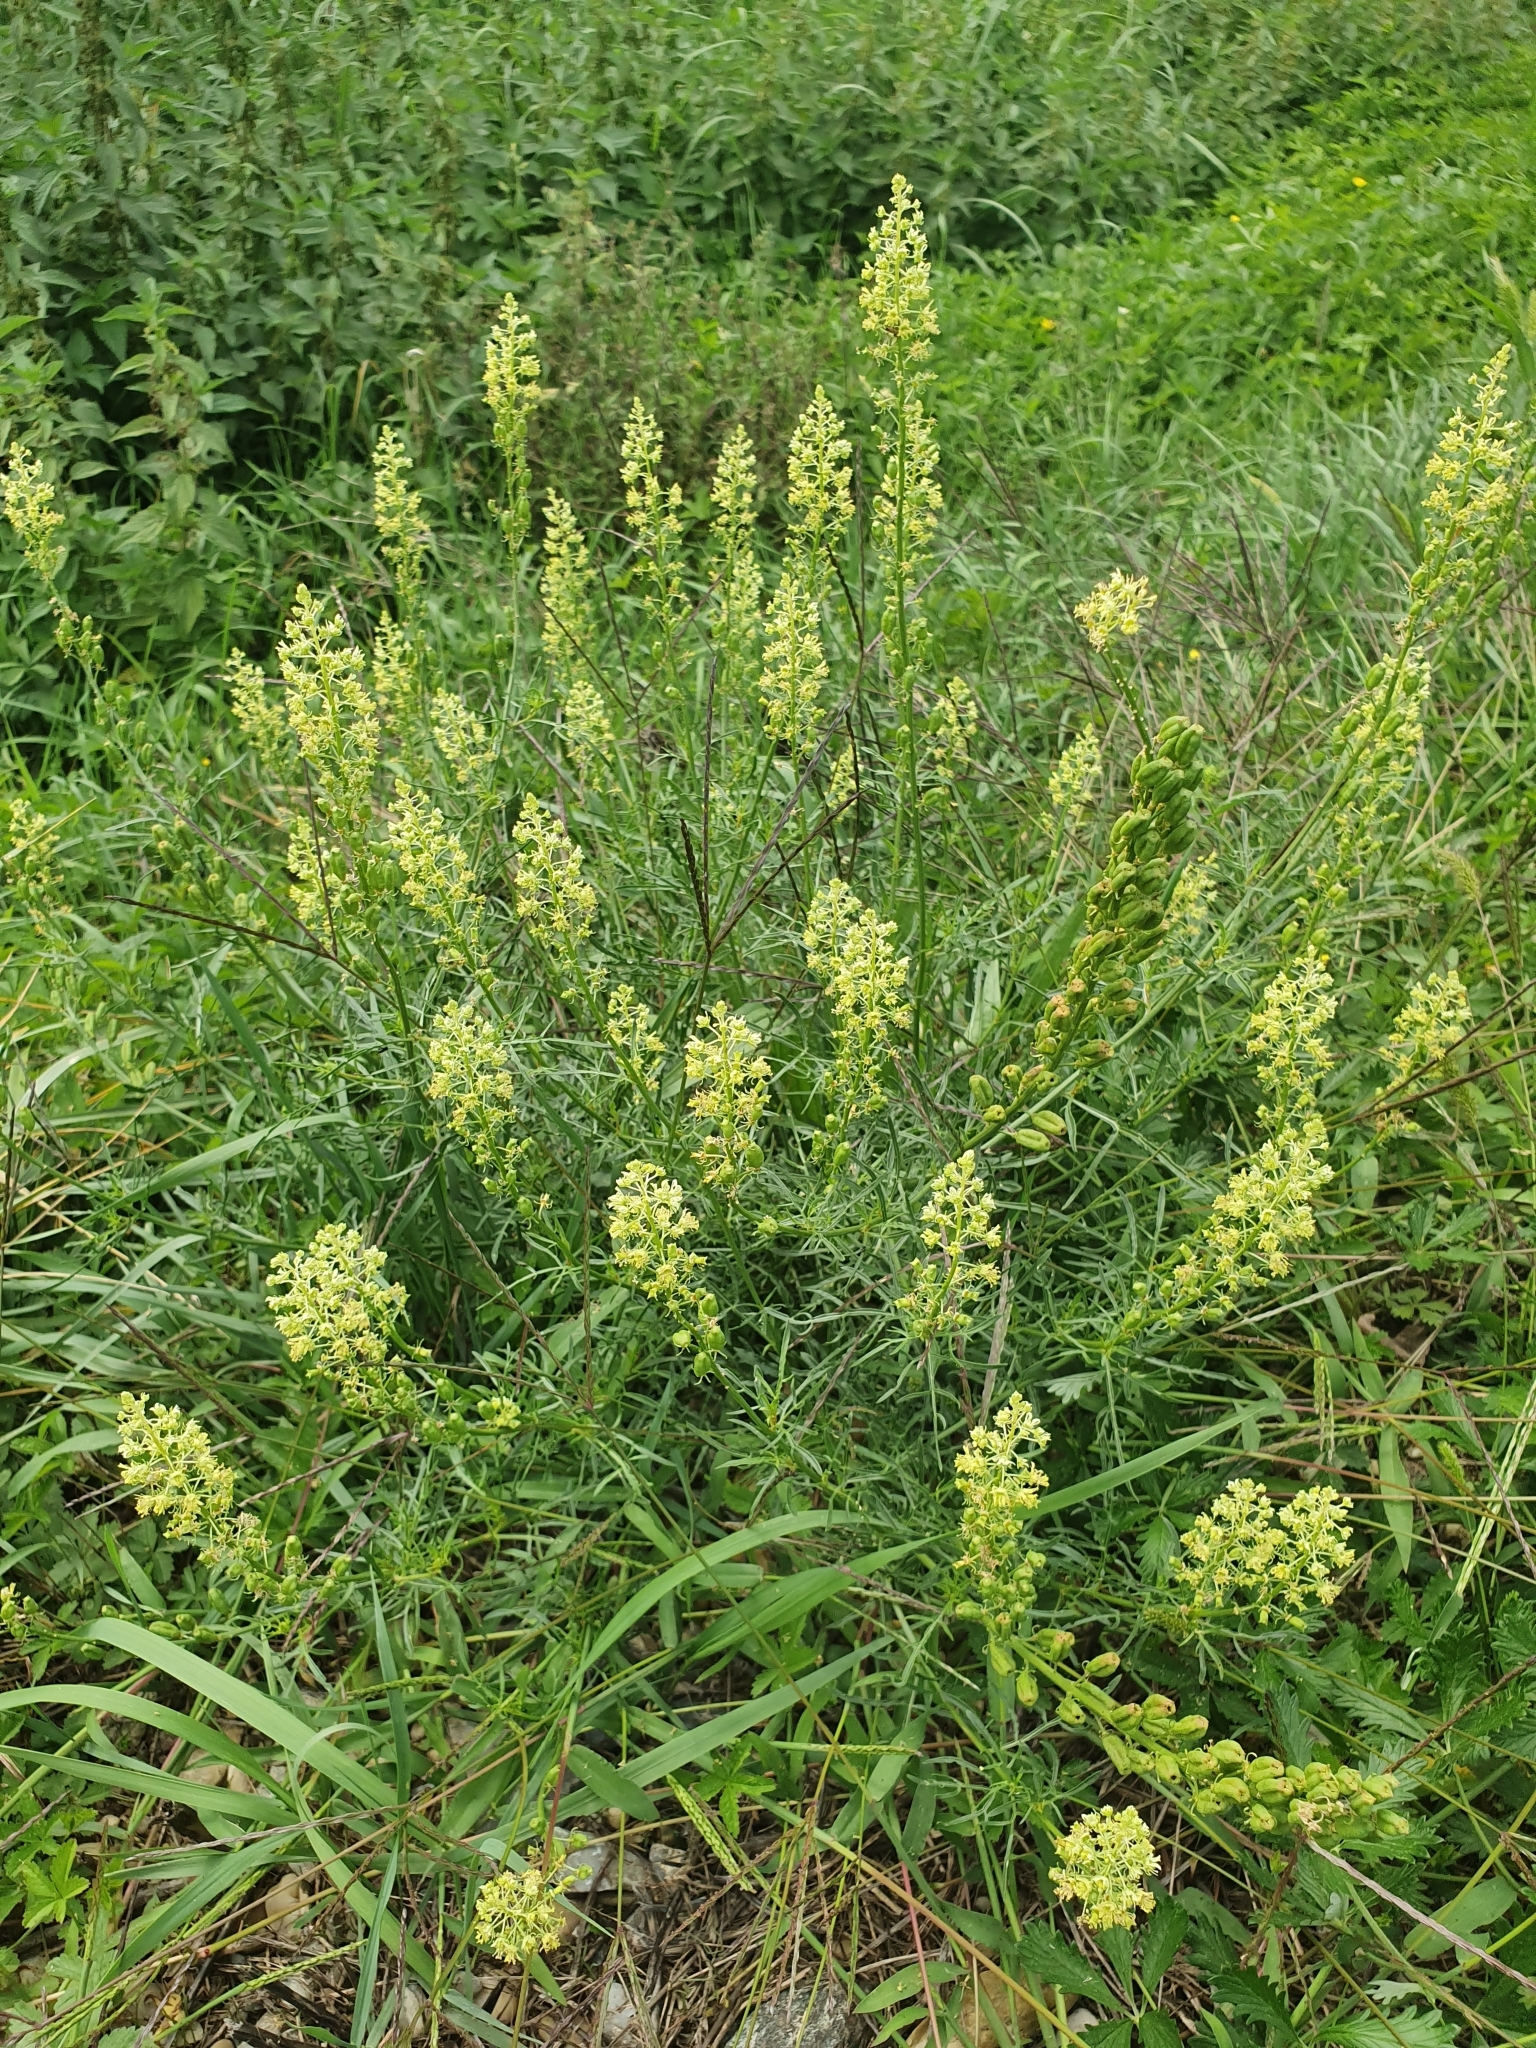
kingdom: Plantae
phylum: Tracheophyta
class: Magnoliopsida
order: Brassicales
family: Resedaceae
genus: Reseda
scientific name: Reseda lutea
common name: Wild mignonette
